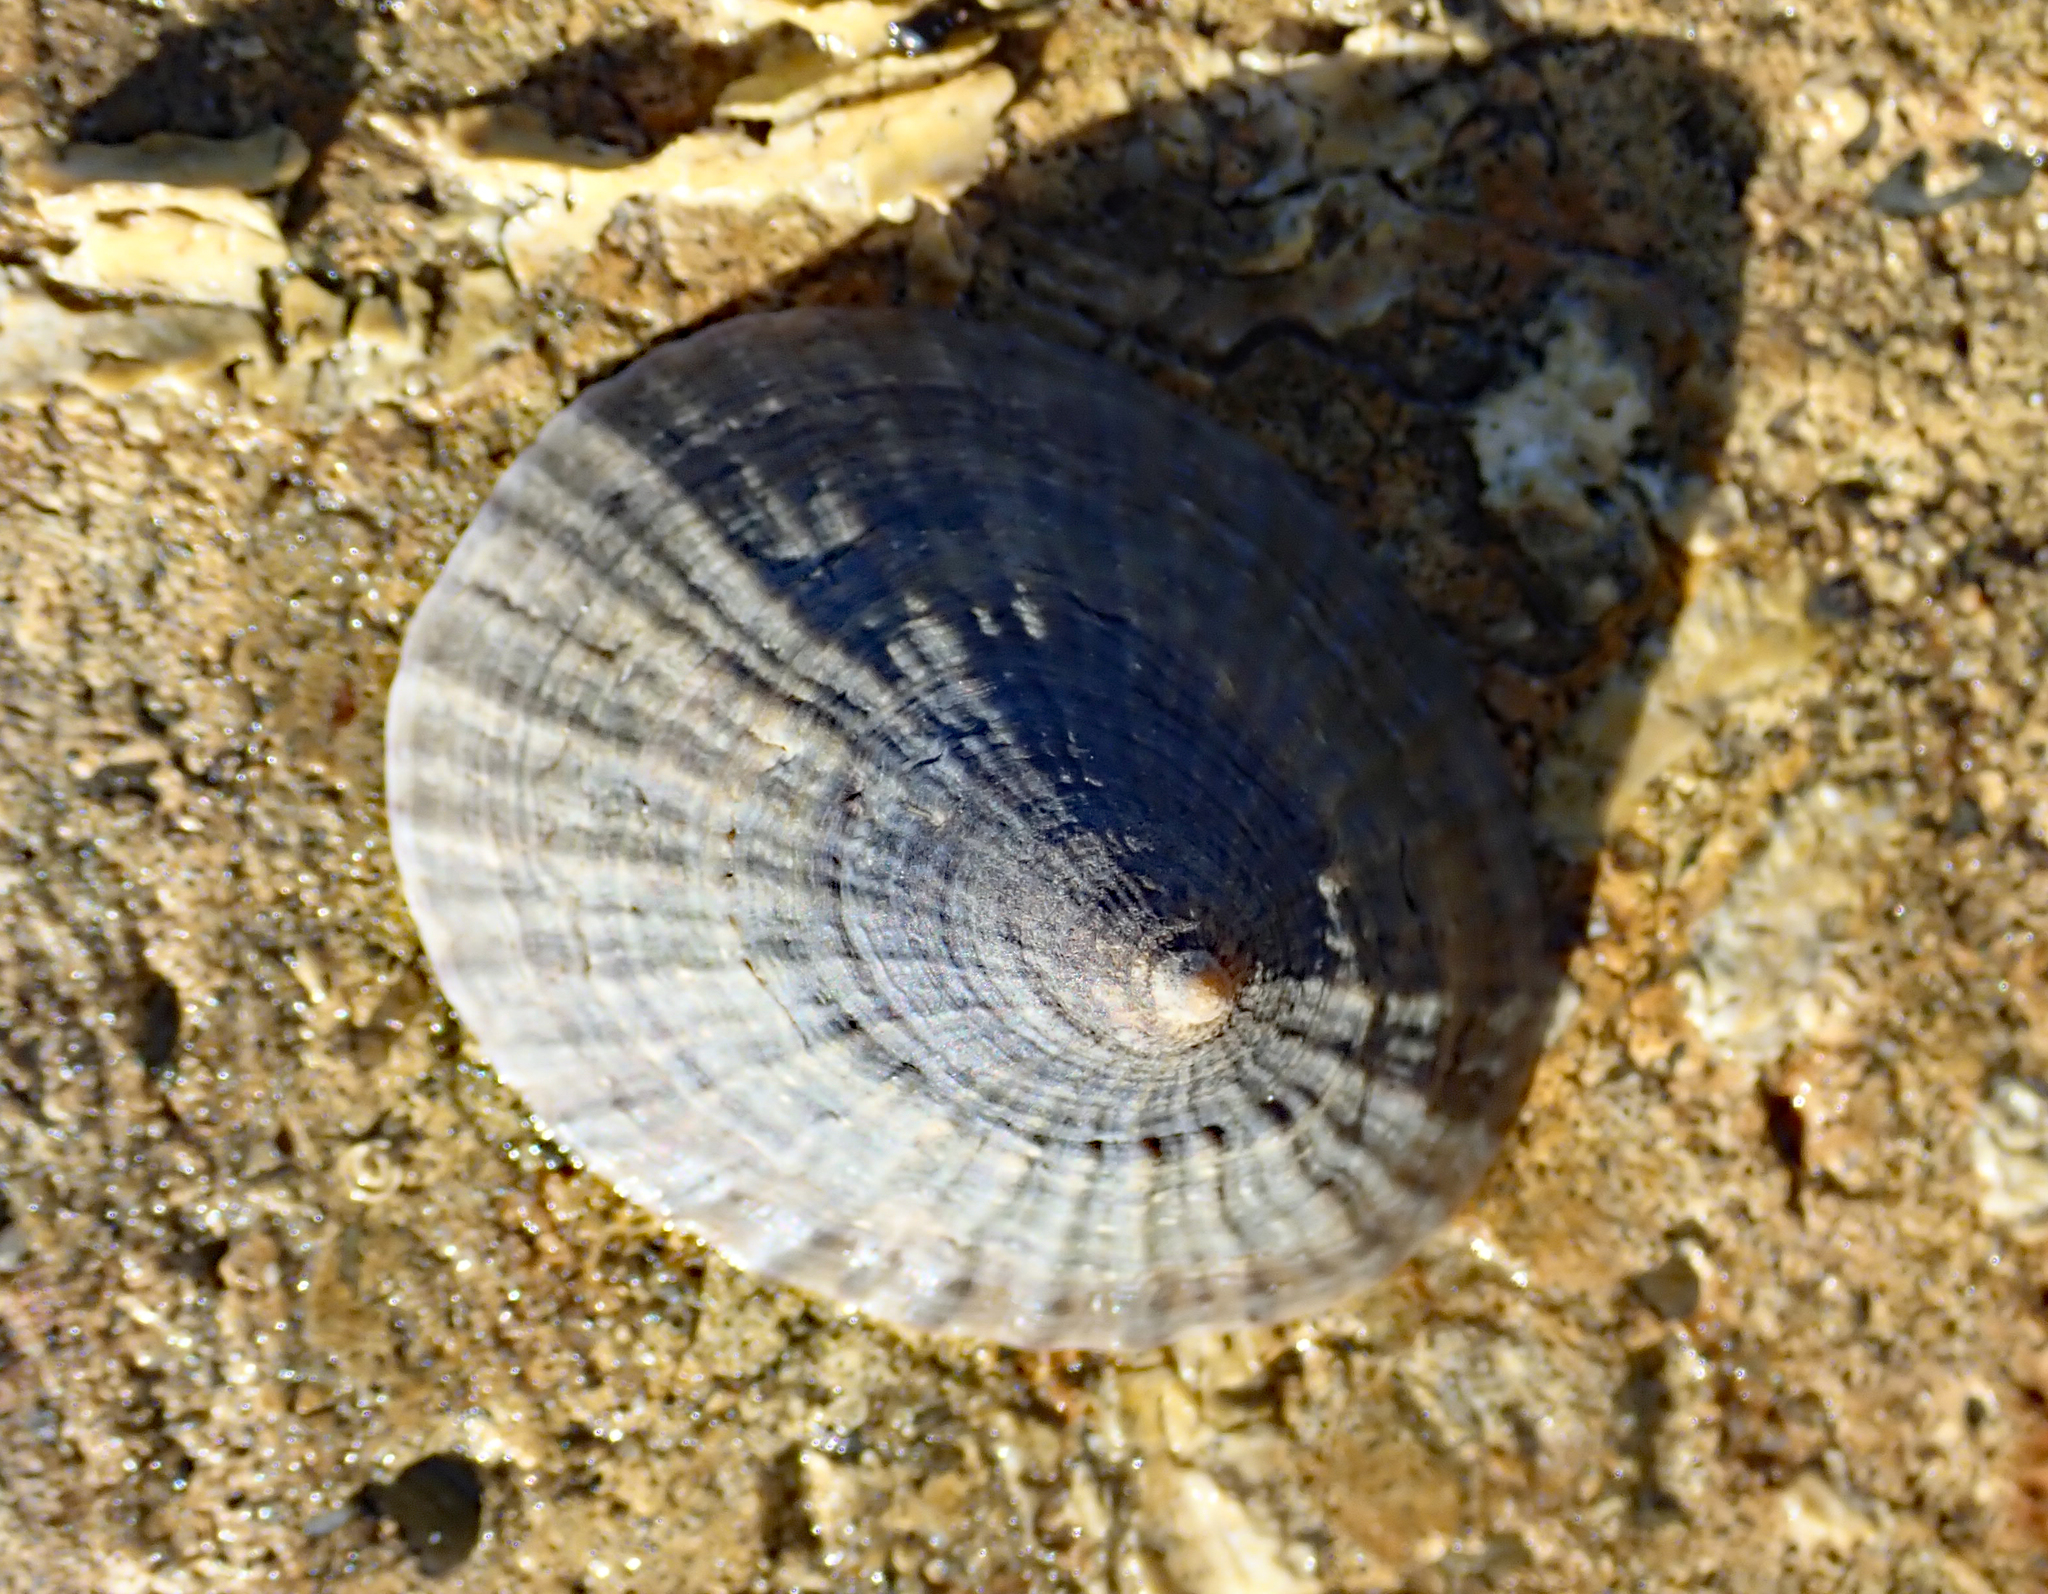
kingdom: Animalia
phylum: Mollusca
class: Gastropoda
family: Nacellidae
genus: Cellana
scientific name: Cellana oliveri
